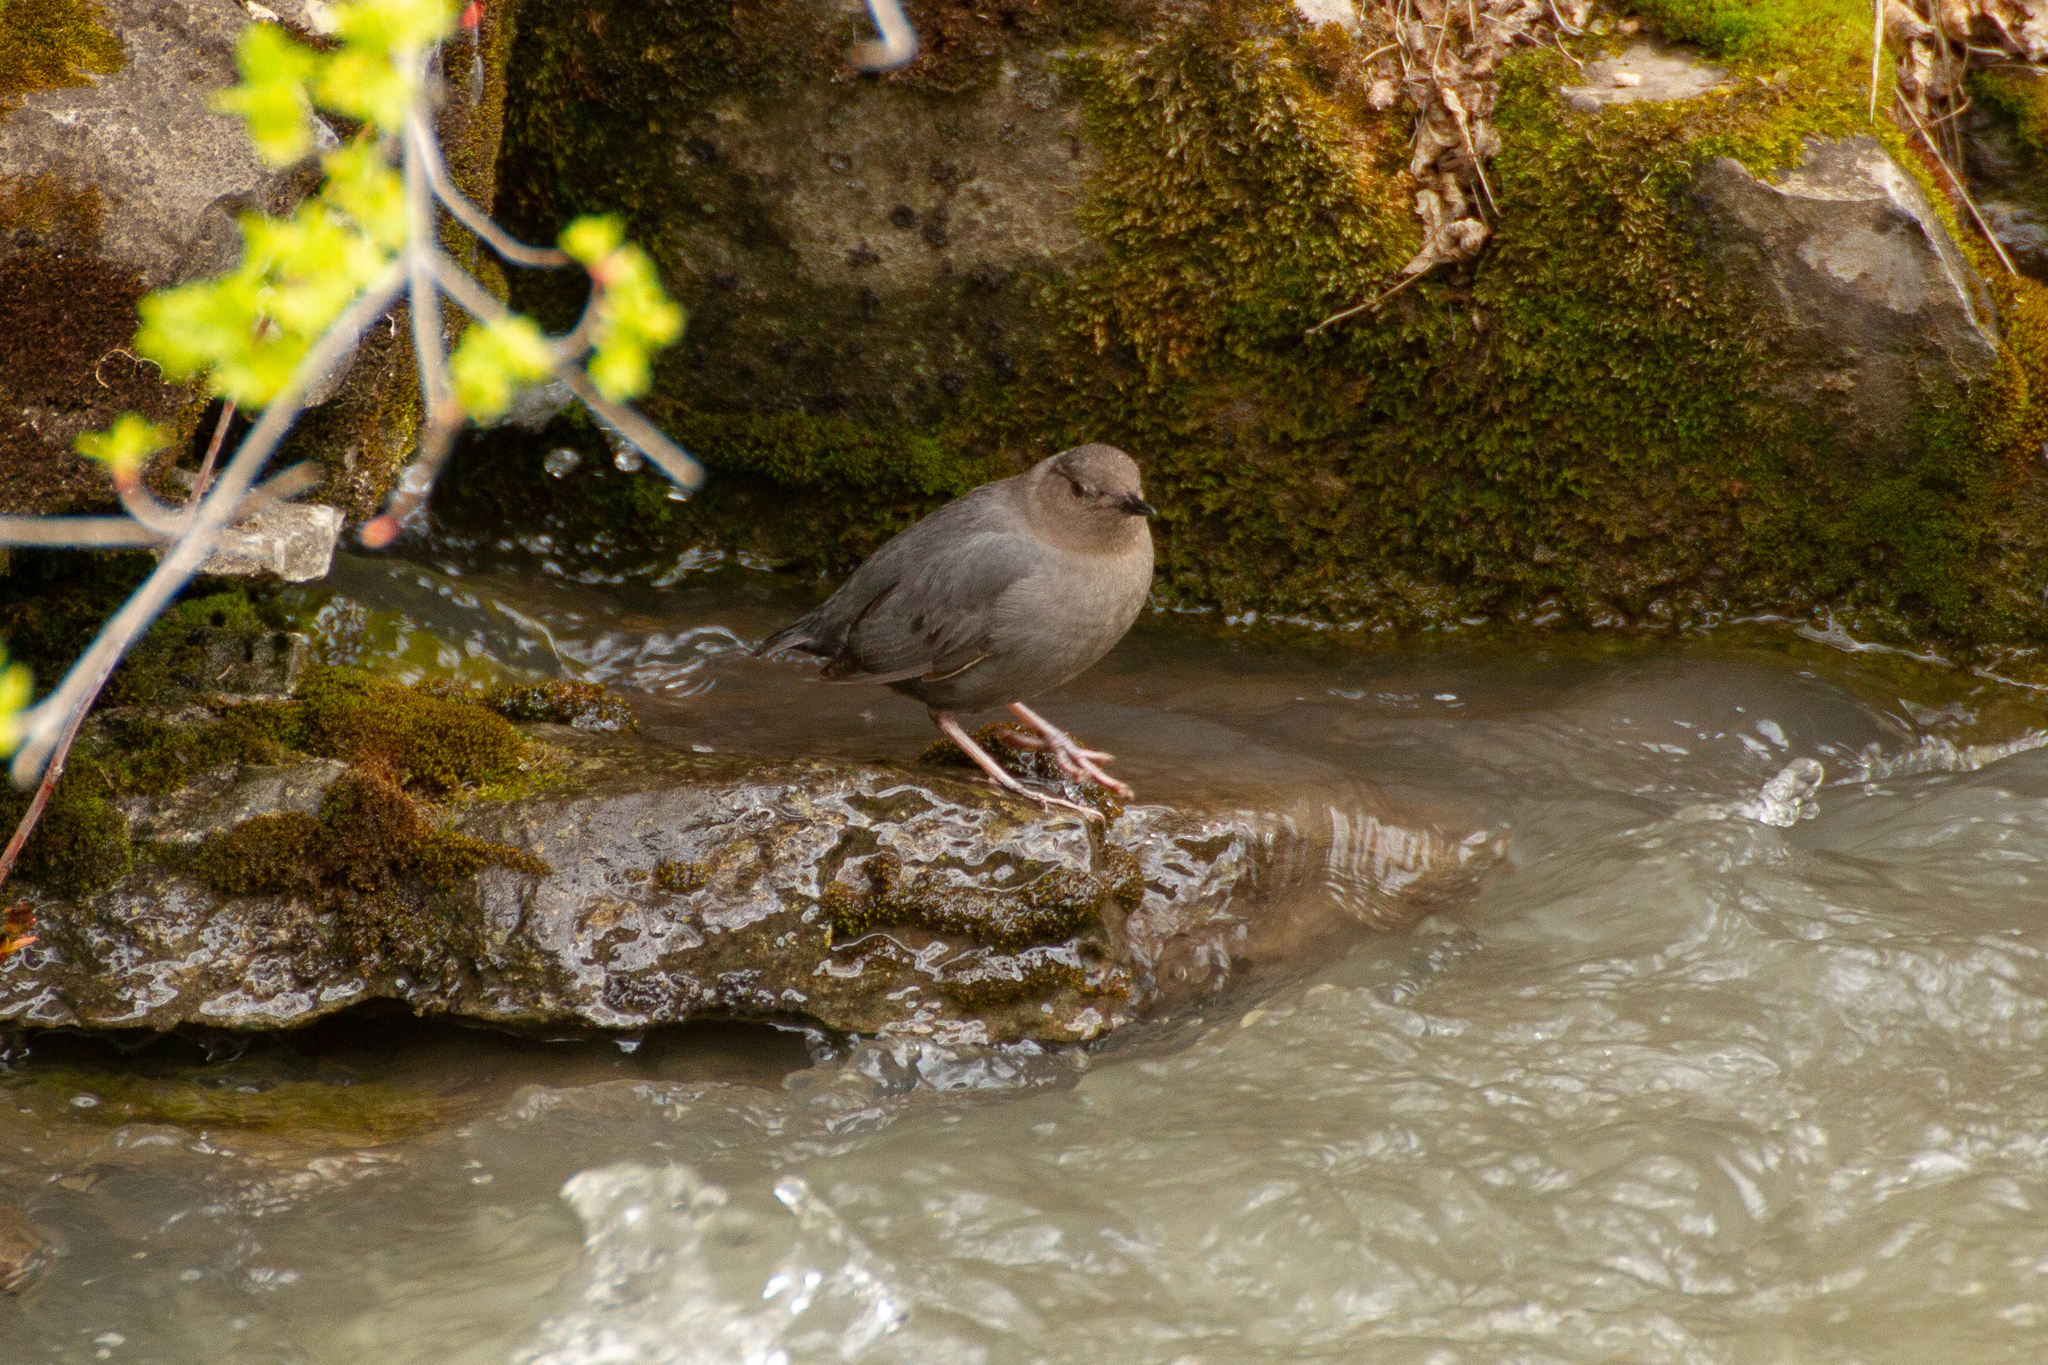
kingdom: Animalia
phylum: Chordata
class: Aves
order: Passeriformes
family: Cinclidae
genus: Cinclus
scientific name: Cinclus mexicanus
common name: American dipper
